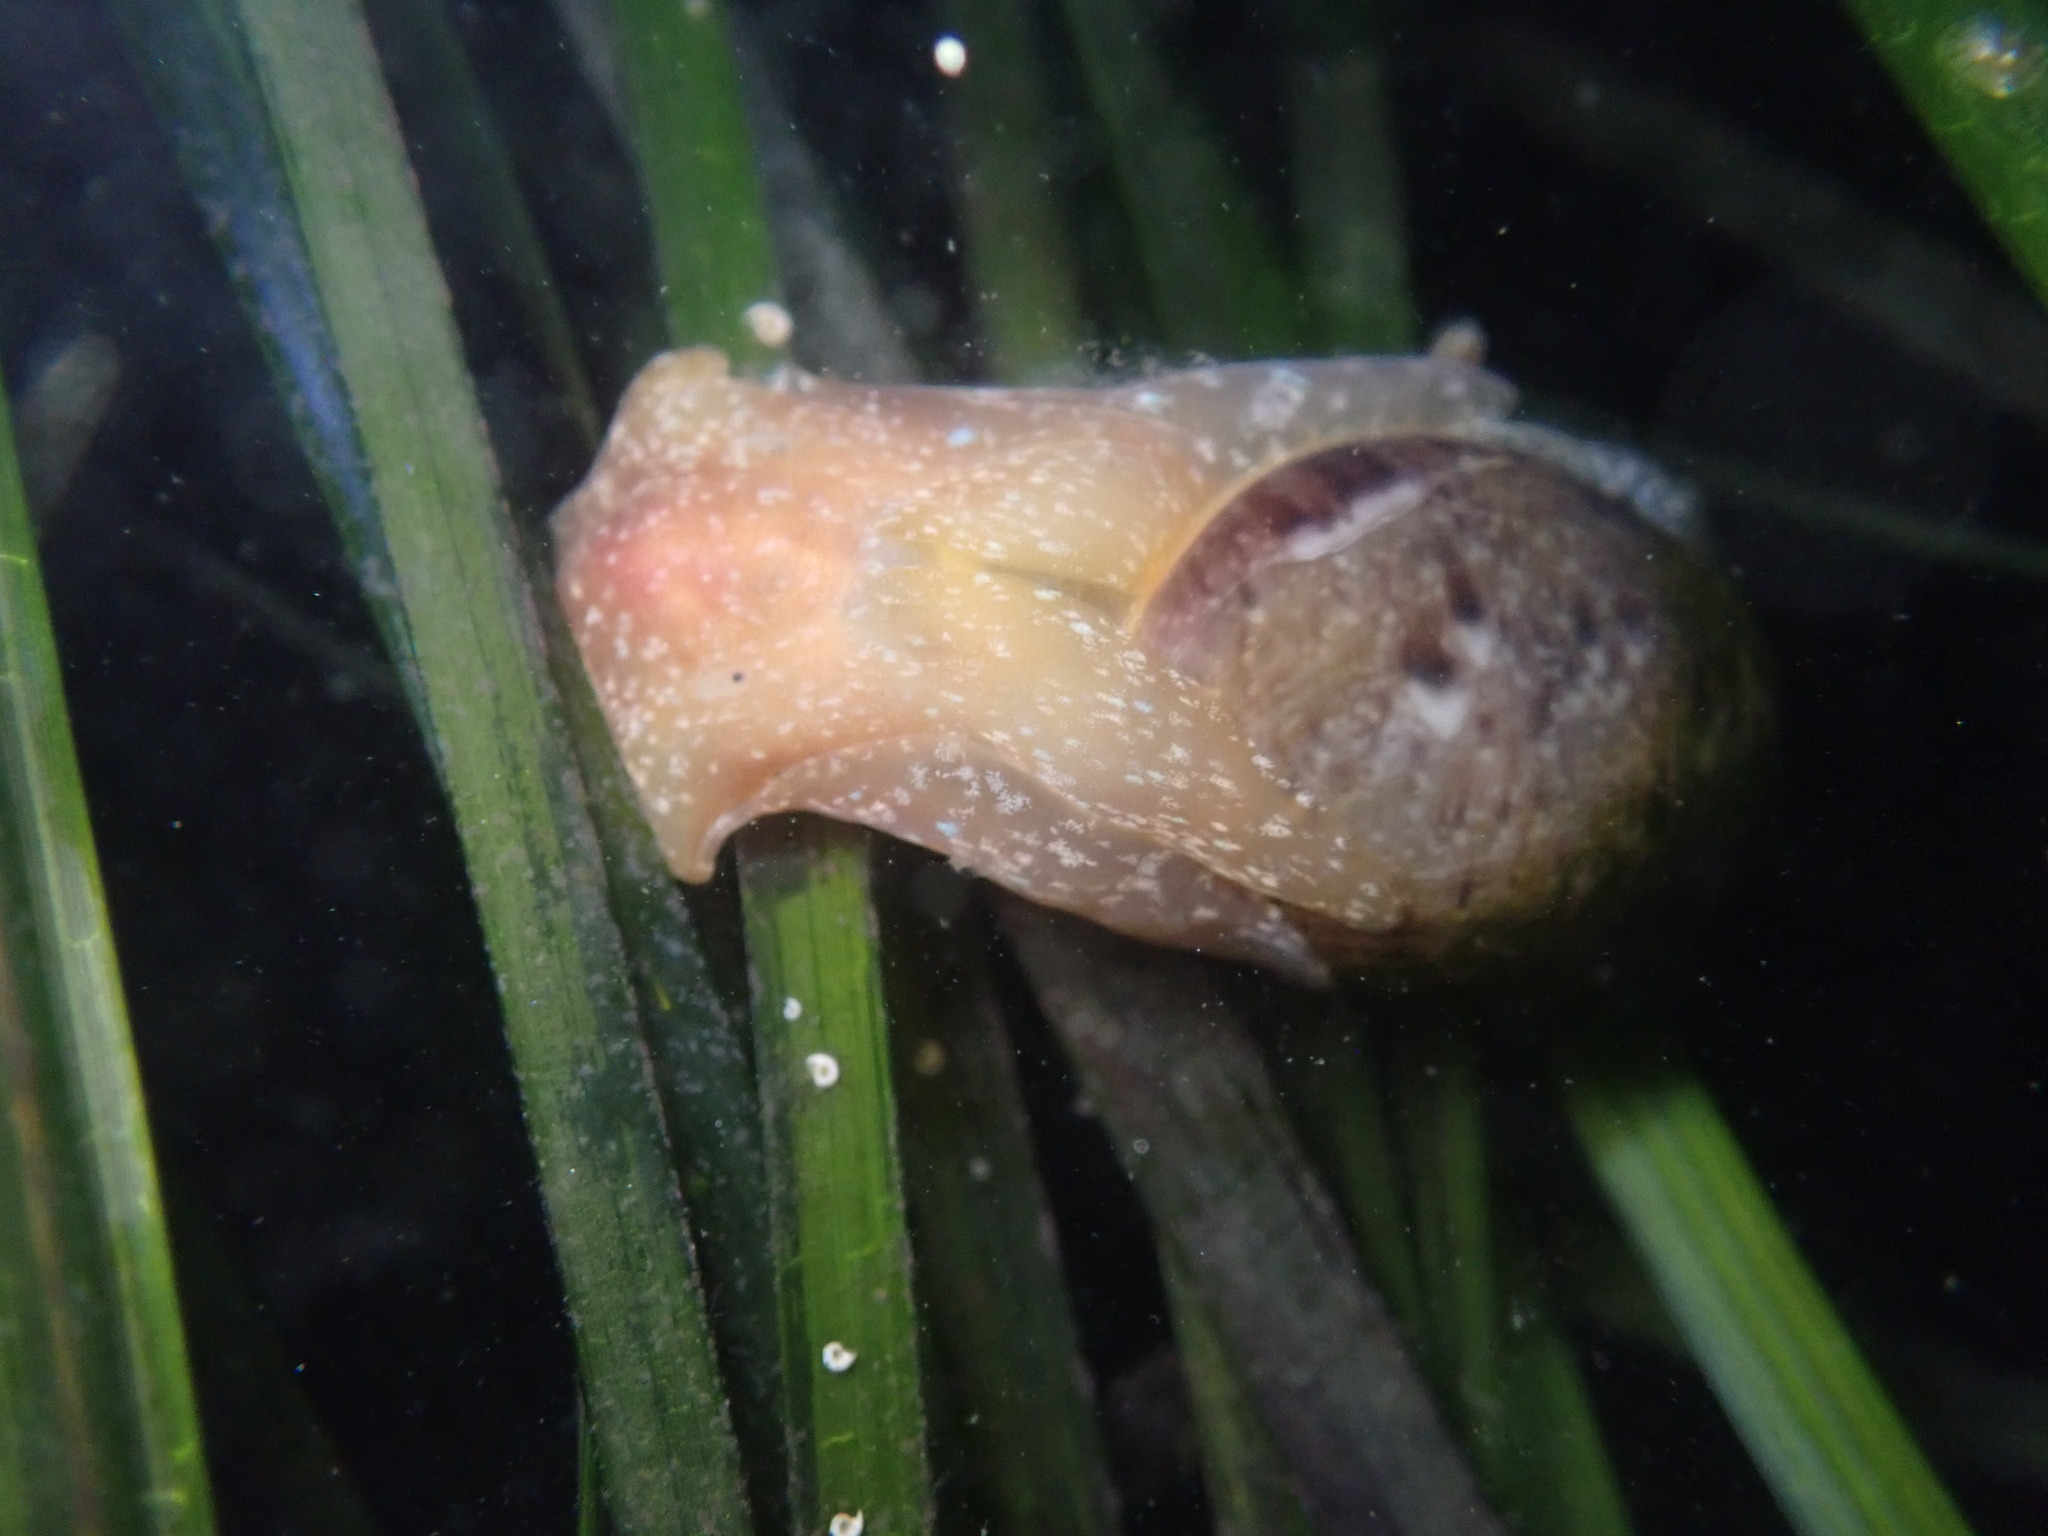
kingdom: Animalia
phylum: Mollusca
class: Gastropoda
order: Cephalaspidea
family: Bullidae
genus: Bulla
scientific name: Bulla gouldiana
